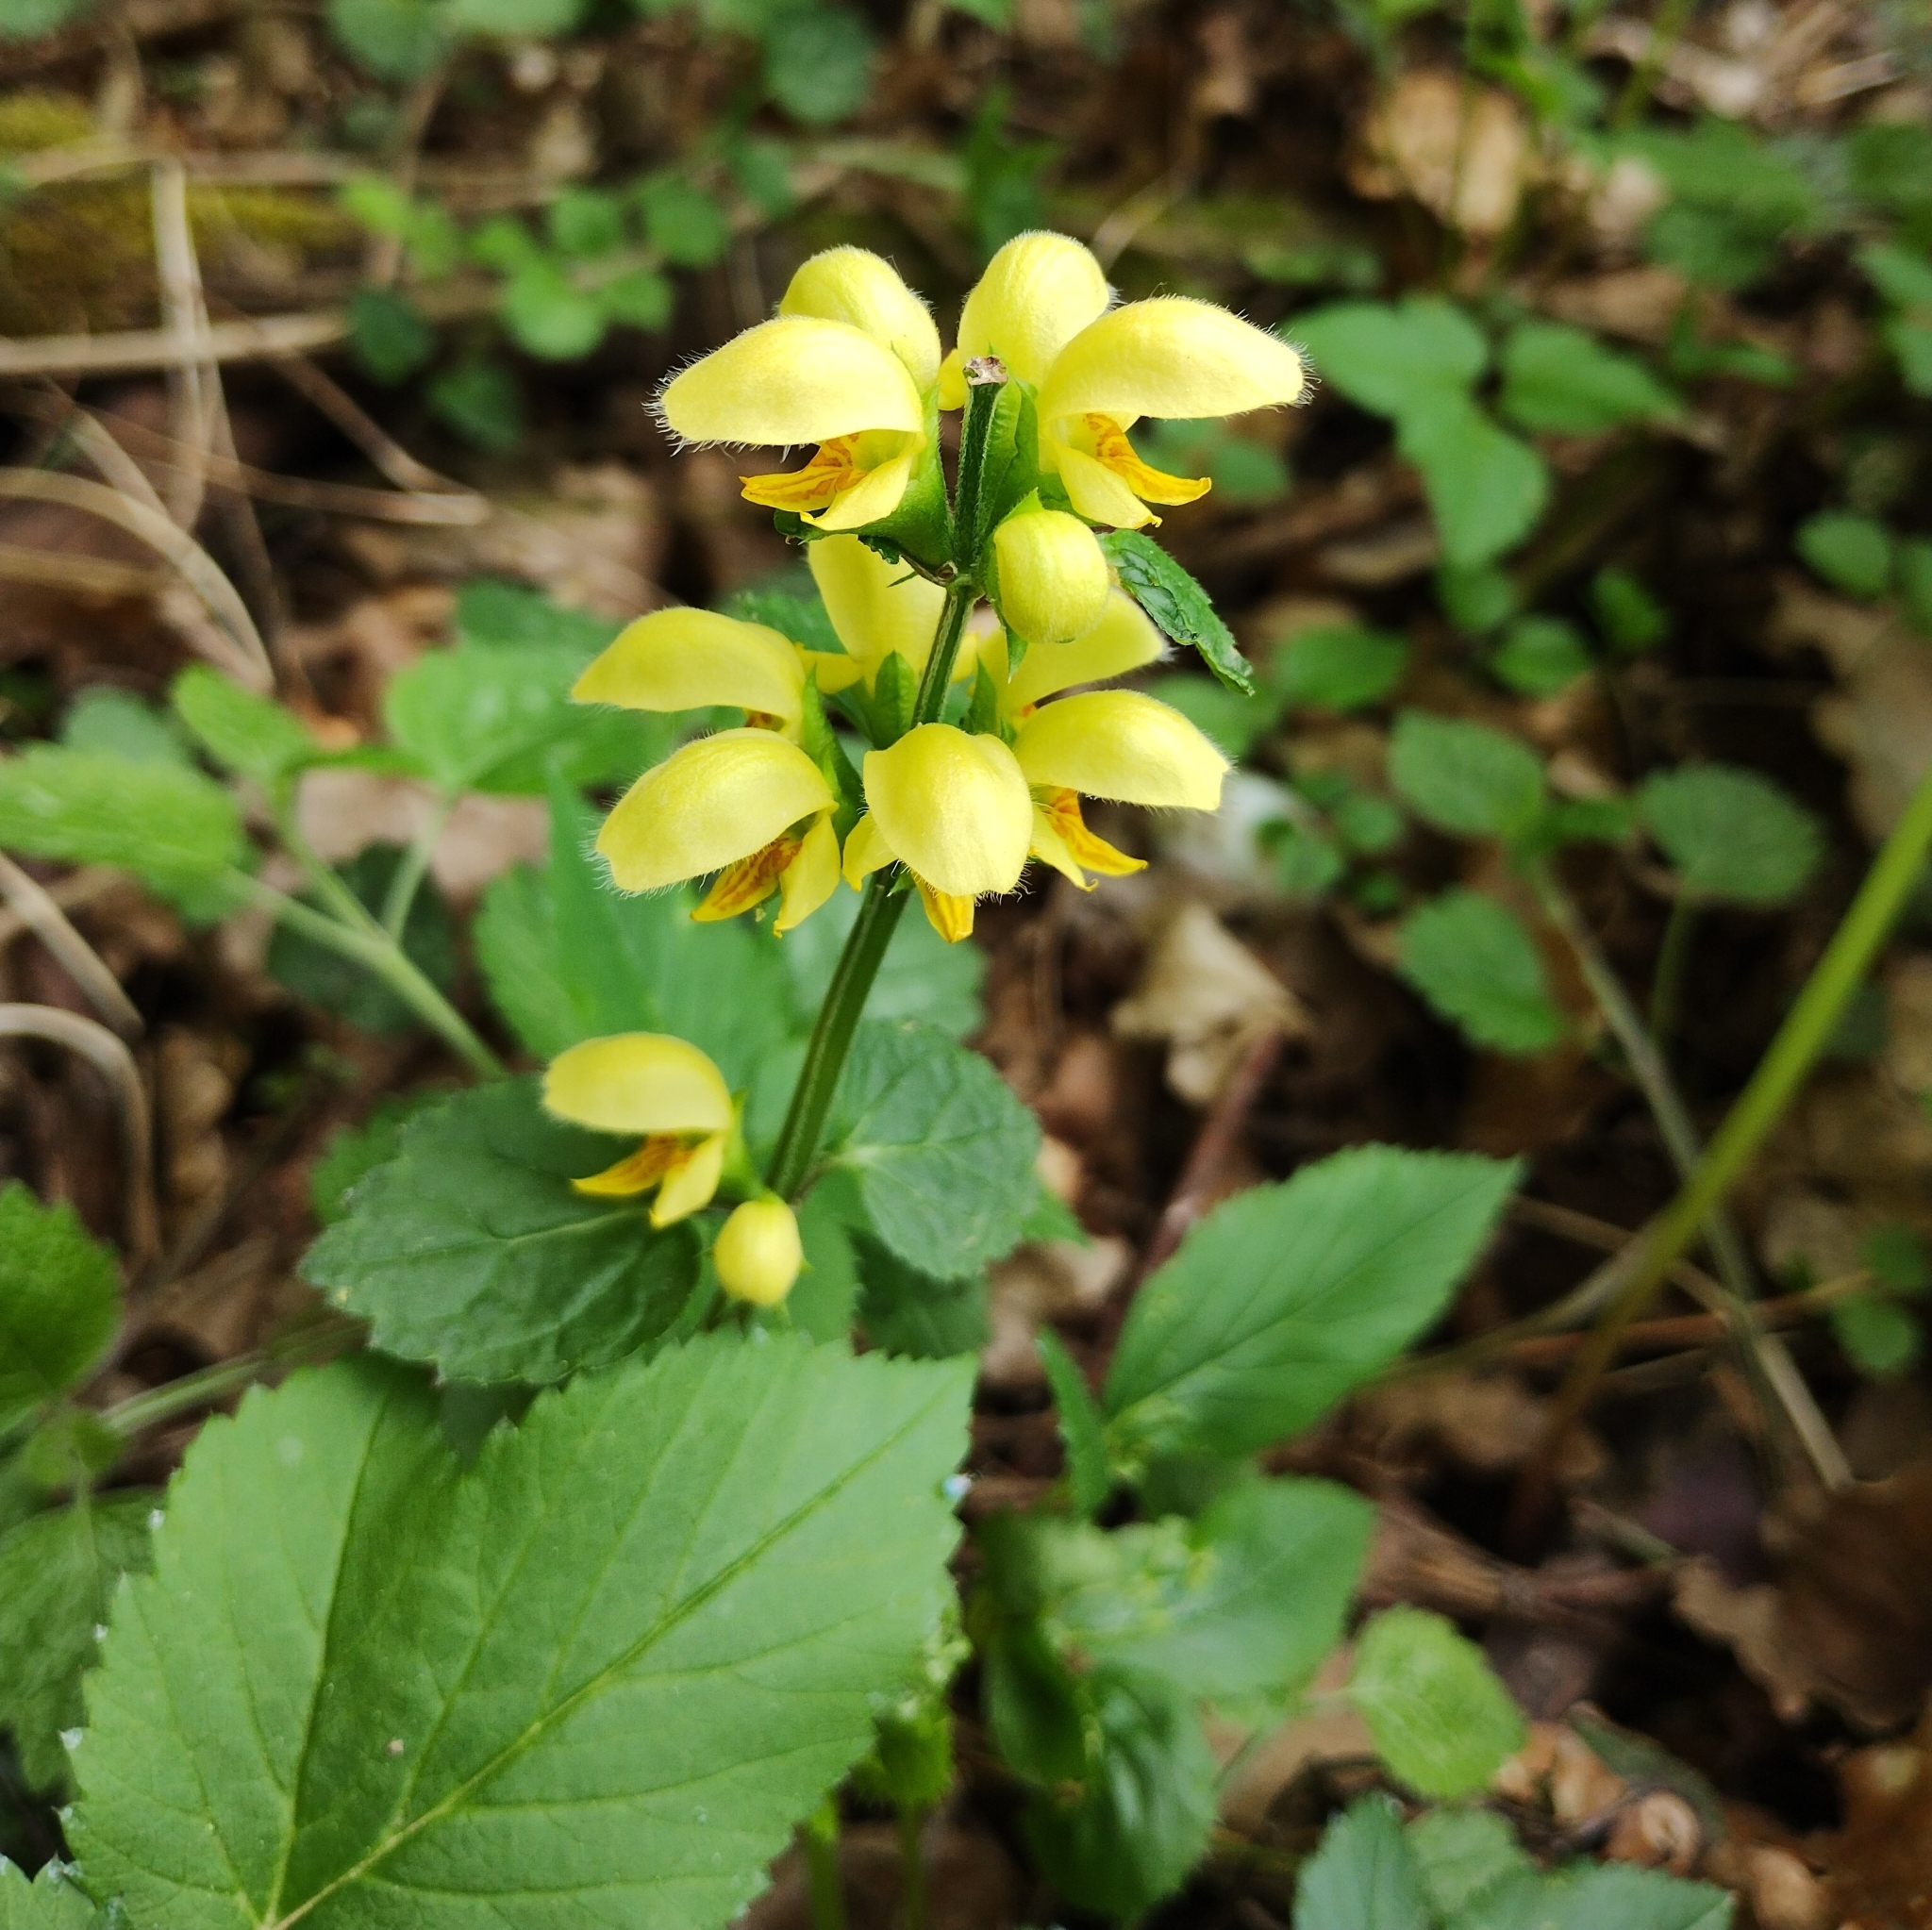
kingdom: Plantae
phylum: Tracheophyta
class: Magnoliopsida
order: Lamiales
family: Lamiaceae
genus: Lamium
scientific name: Lamium galeobdolon
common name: Yellow archangel
